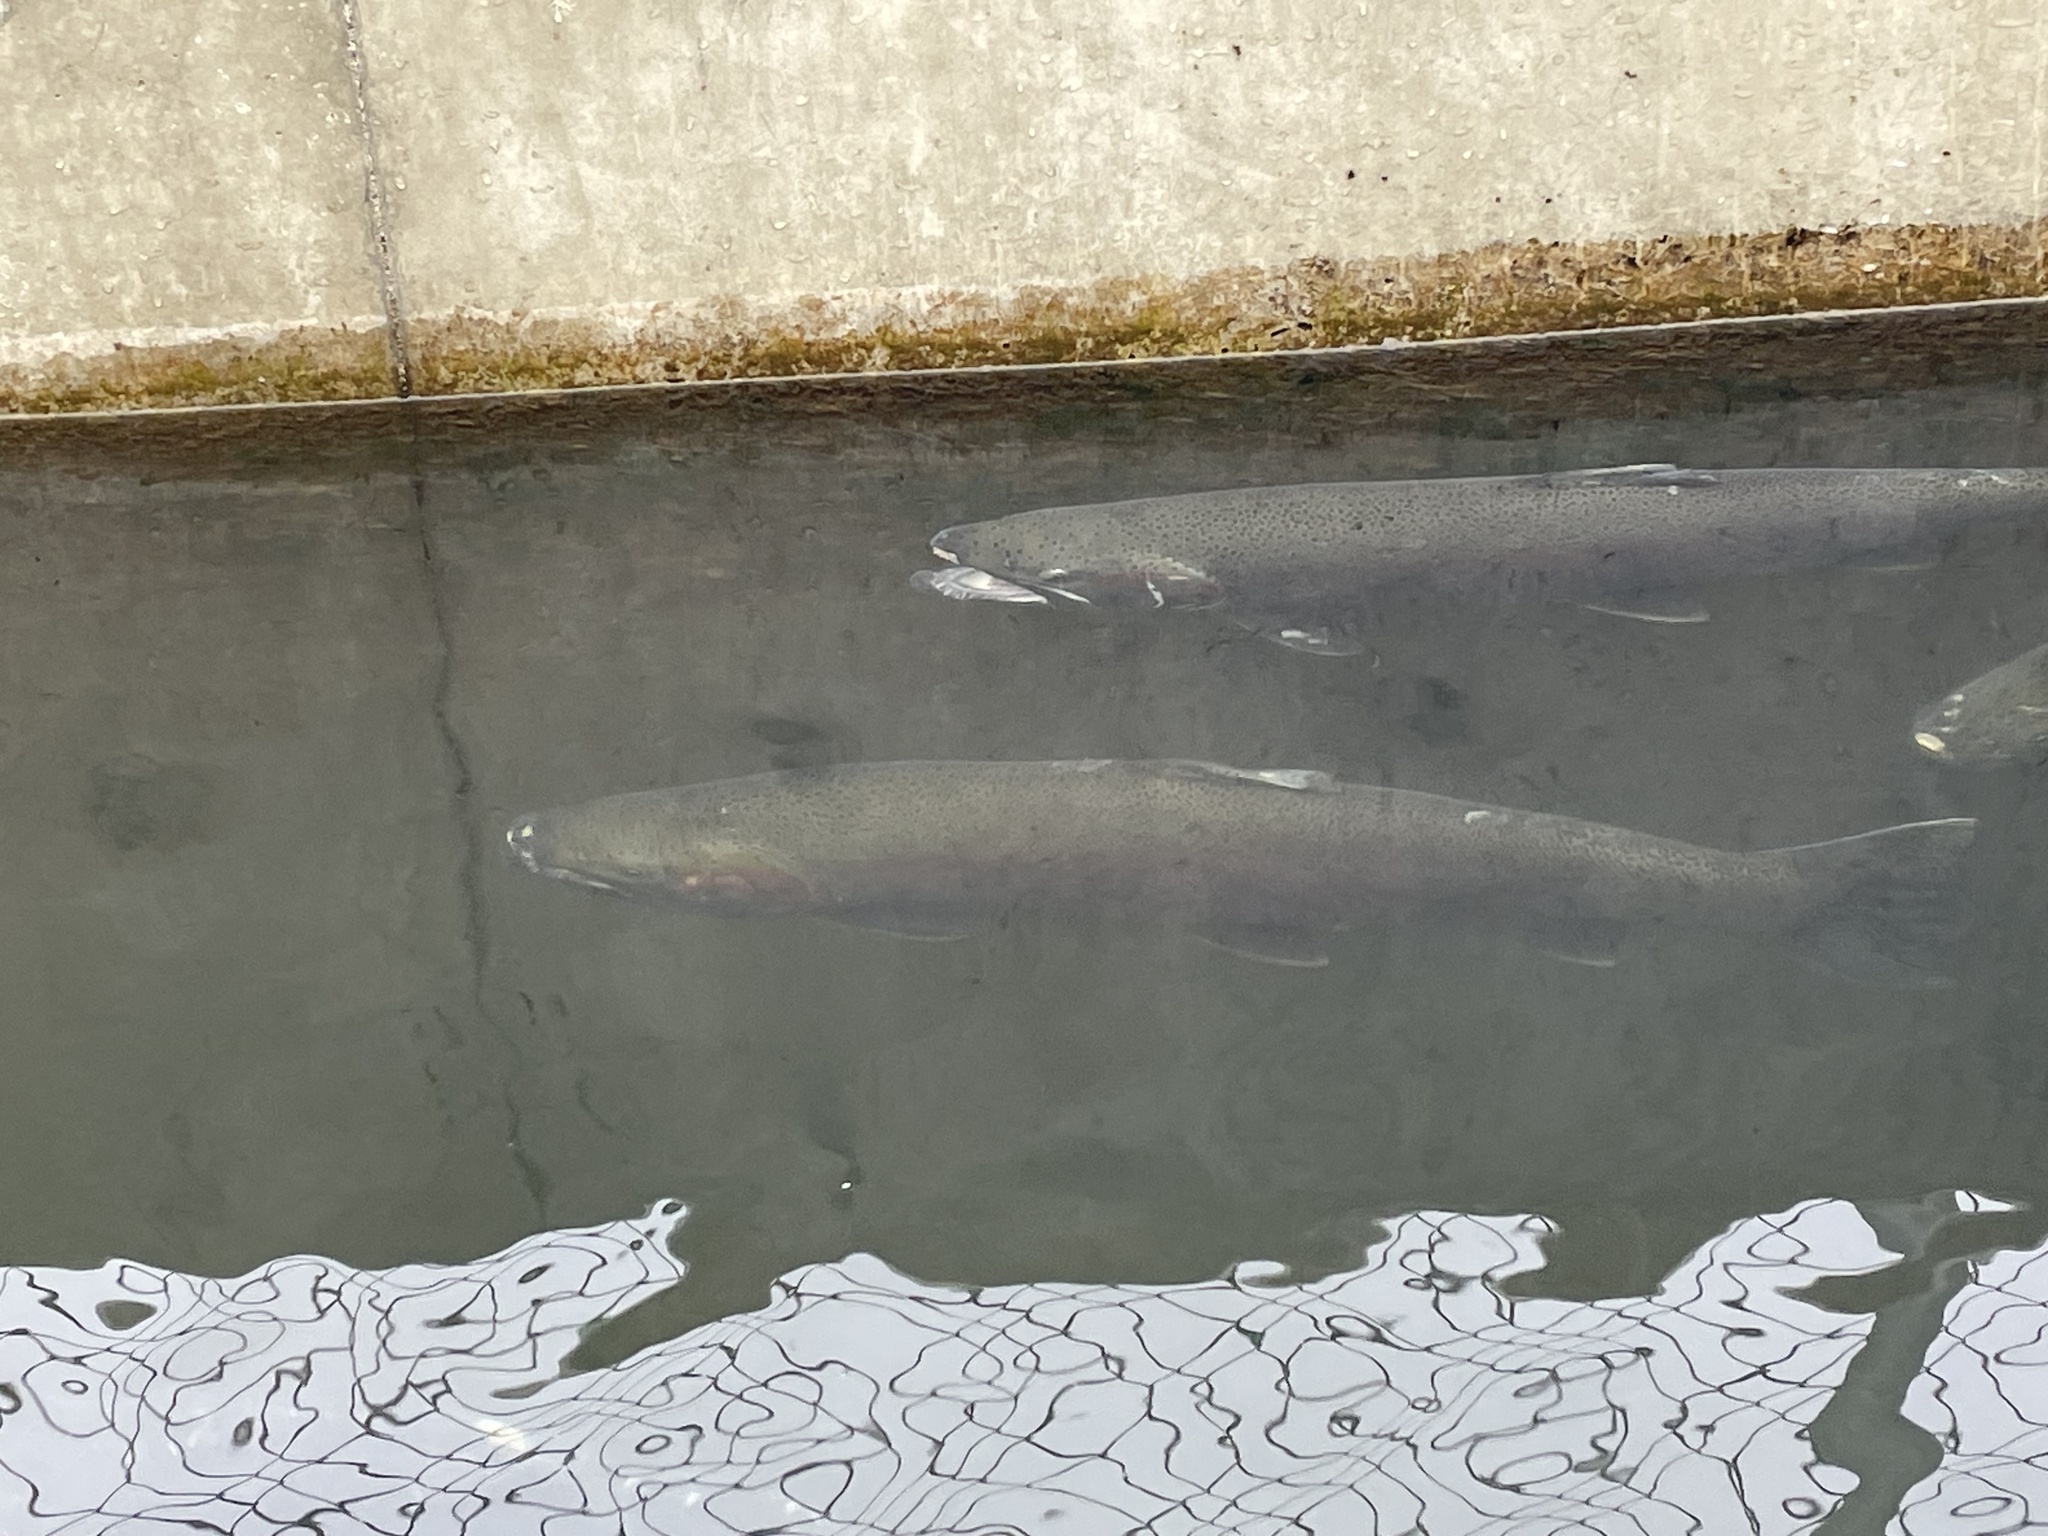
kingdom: Animalia
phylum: Chordata
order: Salmoniformes
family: Salmonidae
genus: Oncorhynchus
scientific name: Oncorhynchus mykiss
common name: Rainbow trout
